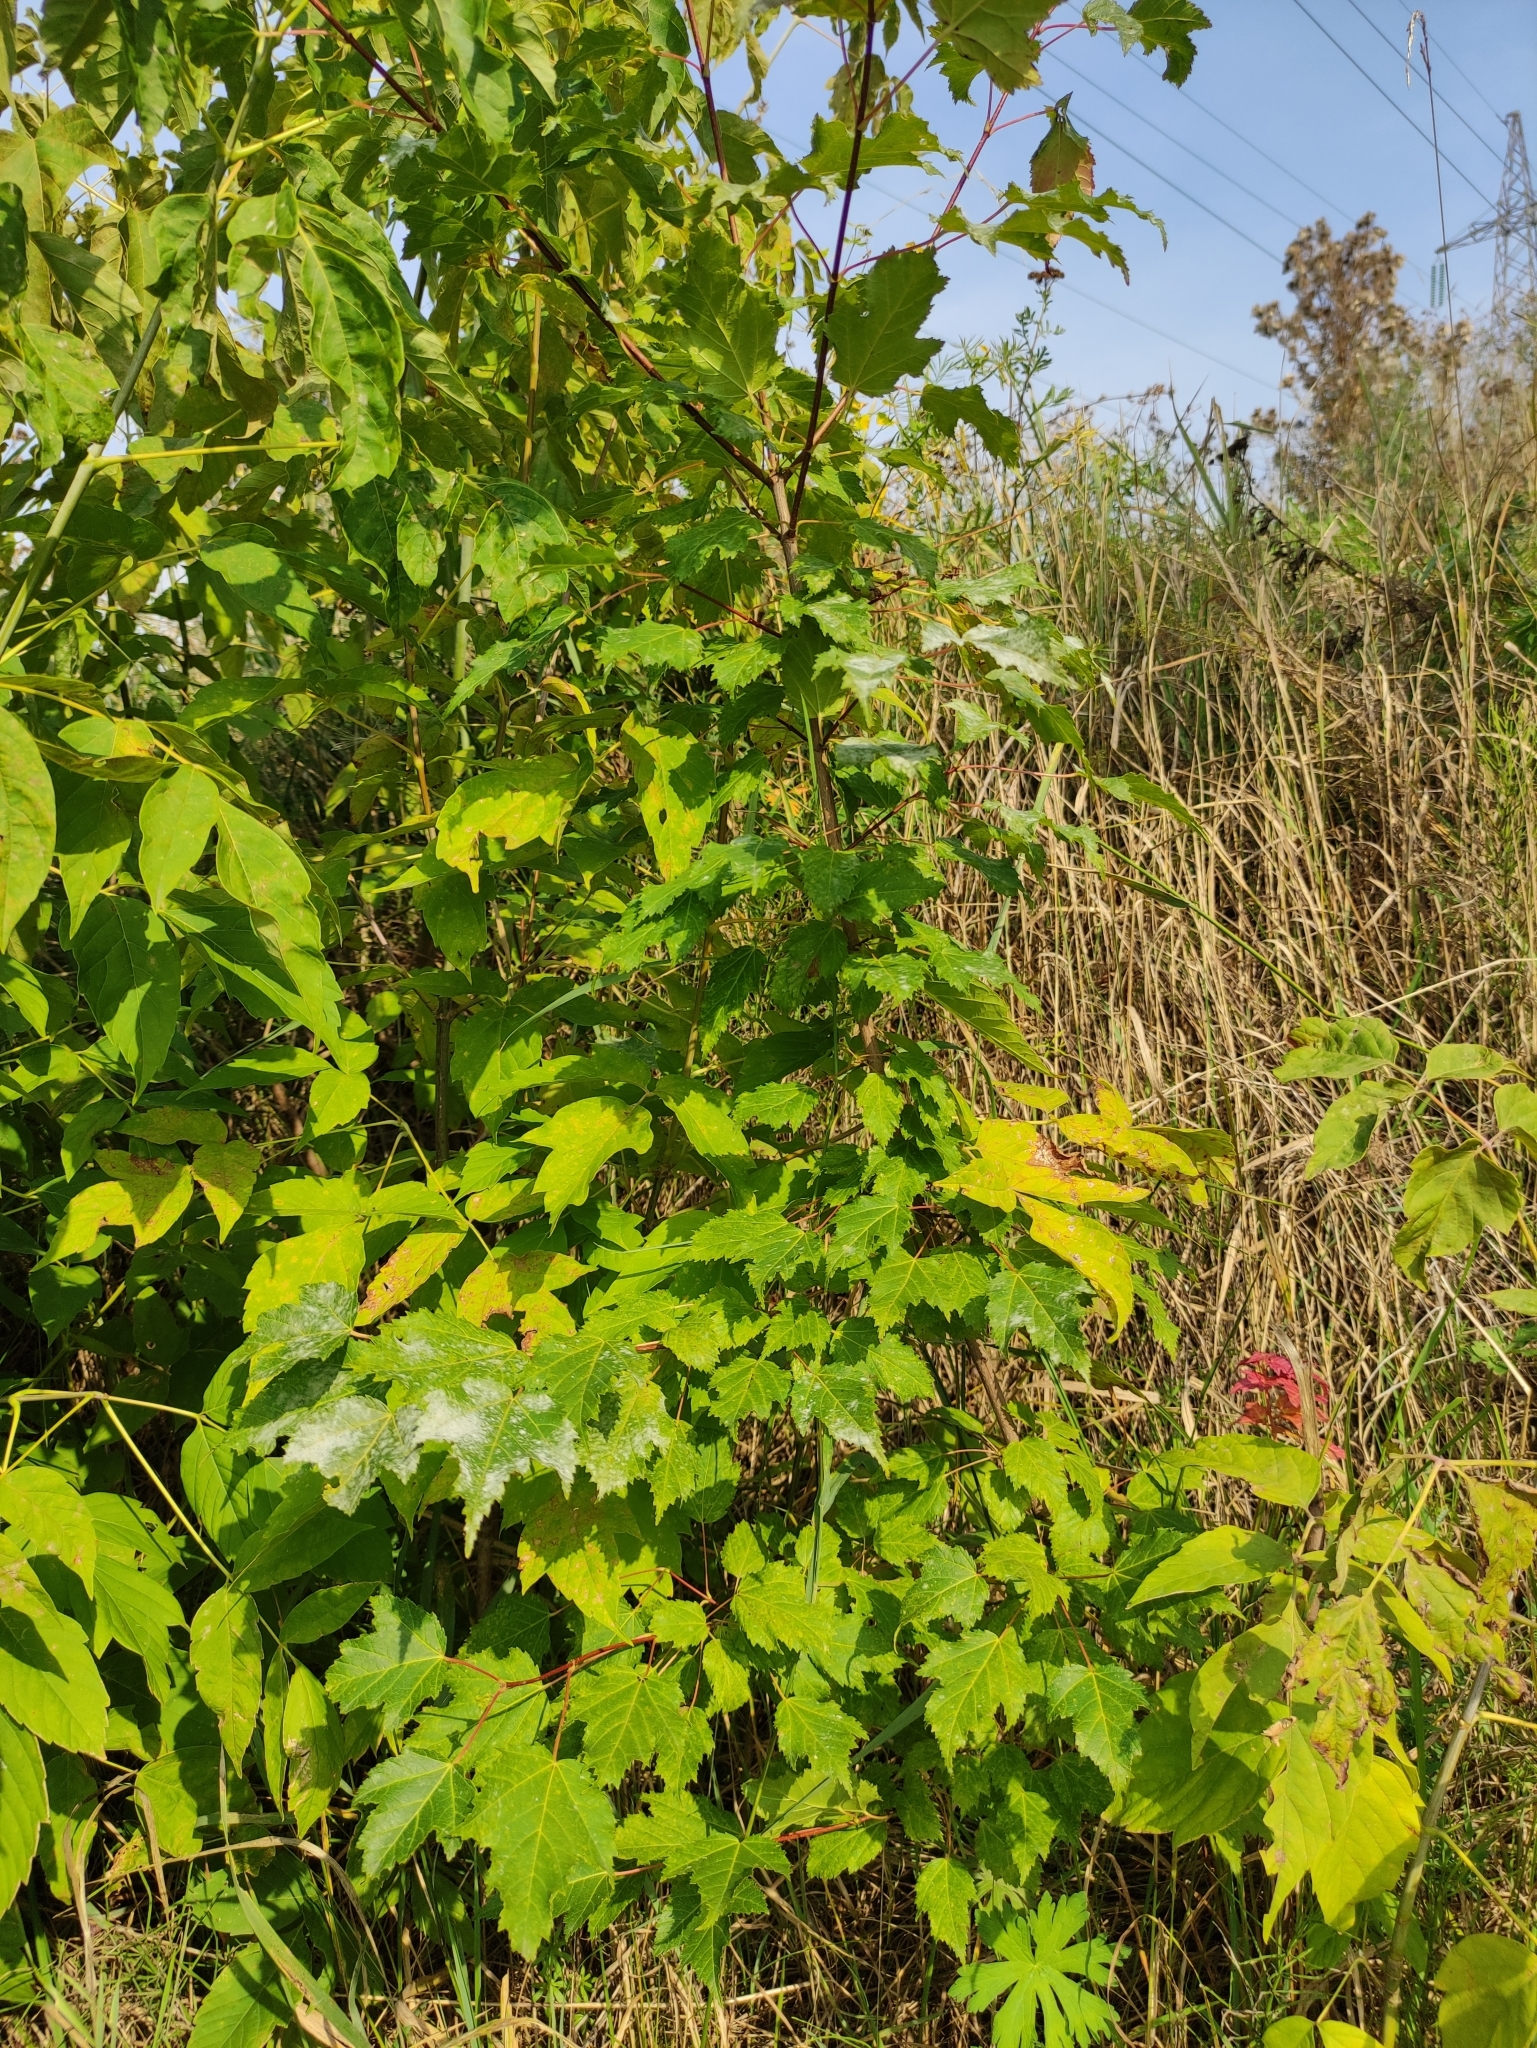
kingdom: Plantae
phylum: Tracheophyta
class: Magnoliopsida
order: Sapindales
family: Sapindaceae
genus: Acer
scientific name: Acer tataricum
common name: Tartar maple
